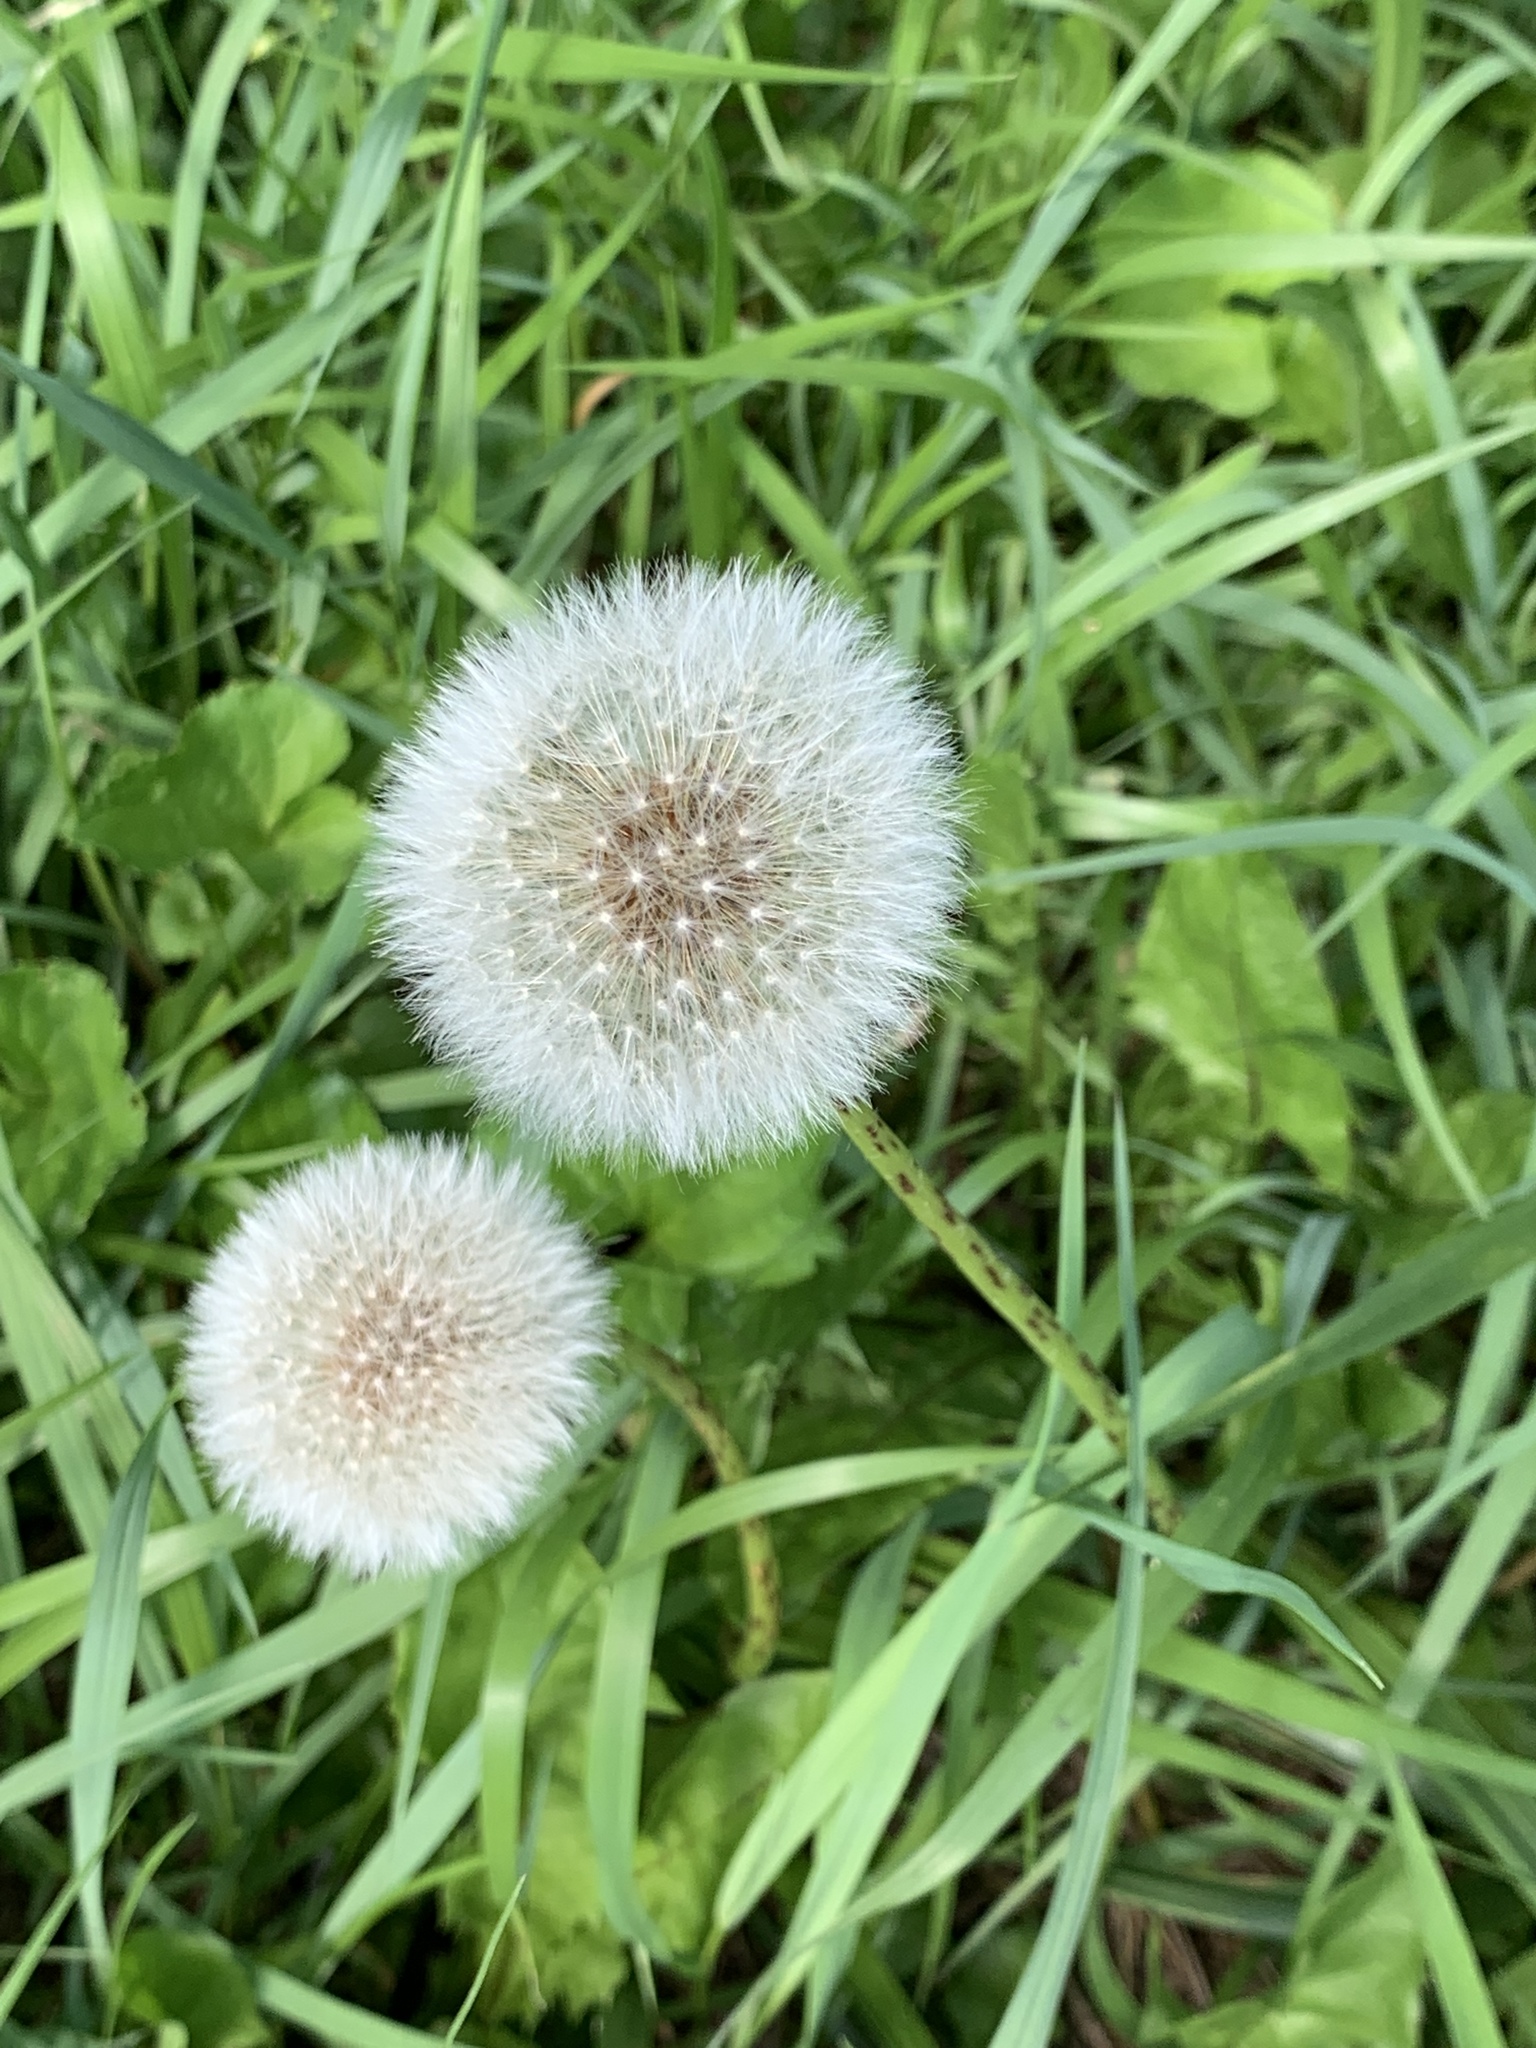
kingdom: Plantae
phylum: Tracheophyta
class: Magnoliopsida
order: Asterales
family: Asteraceae
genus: Taraxacum
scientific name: Taraxacum officinale
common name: Common dandelion
